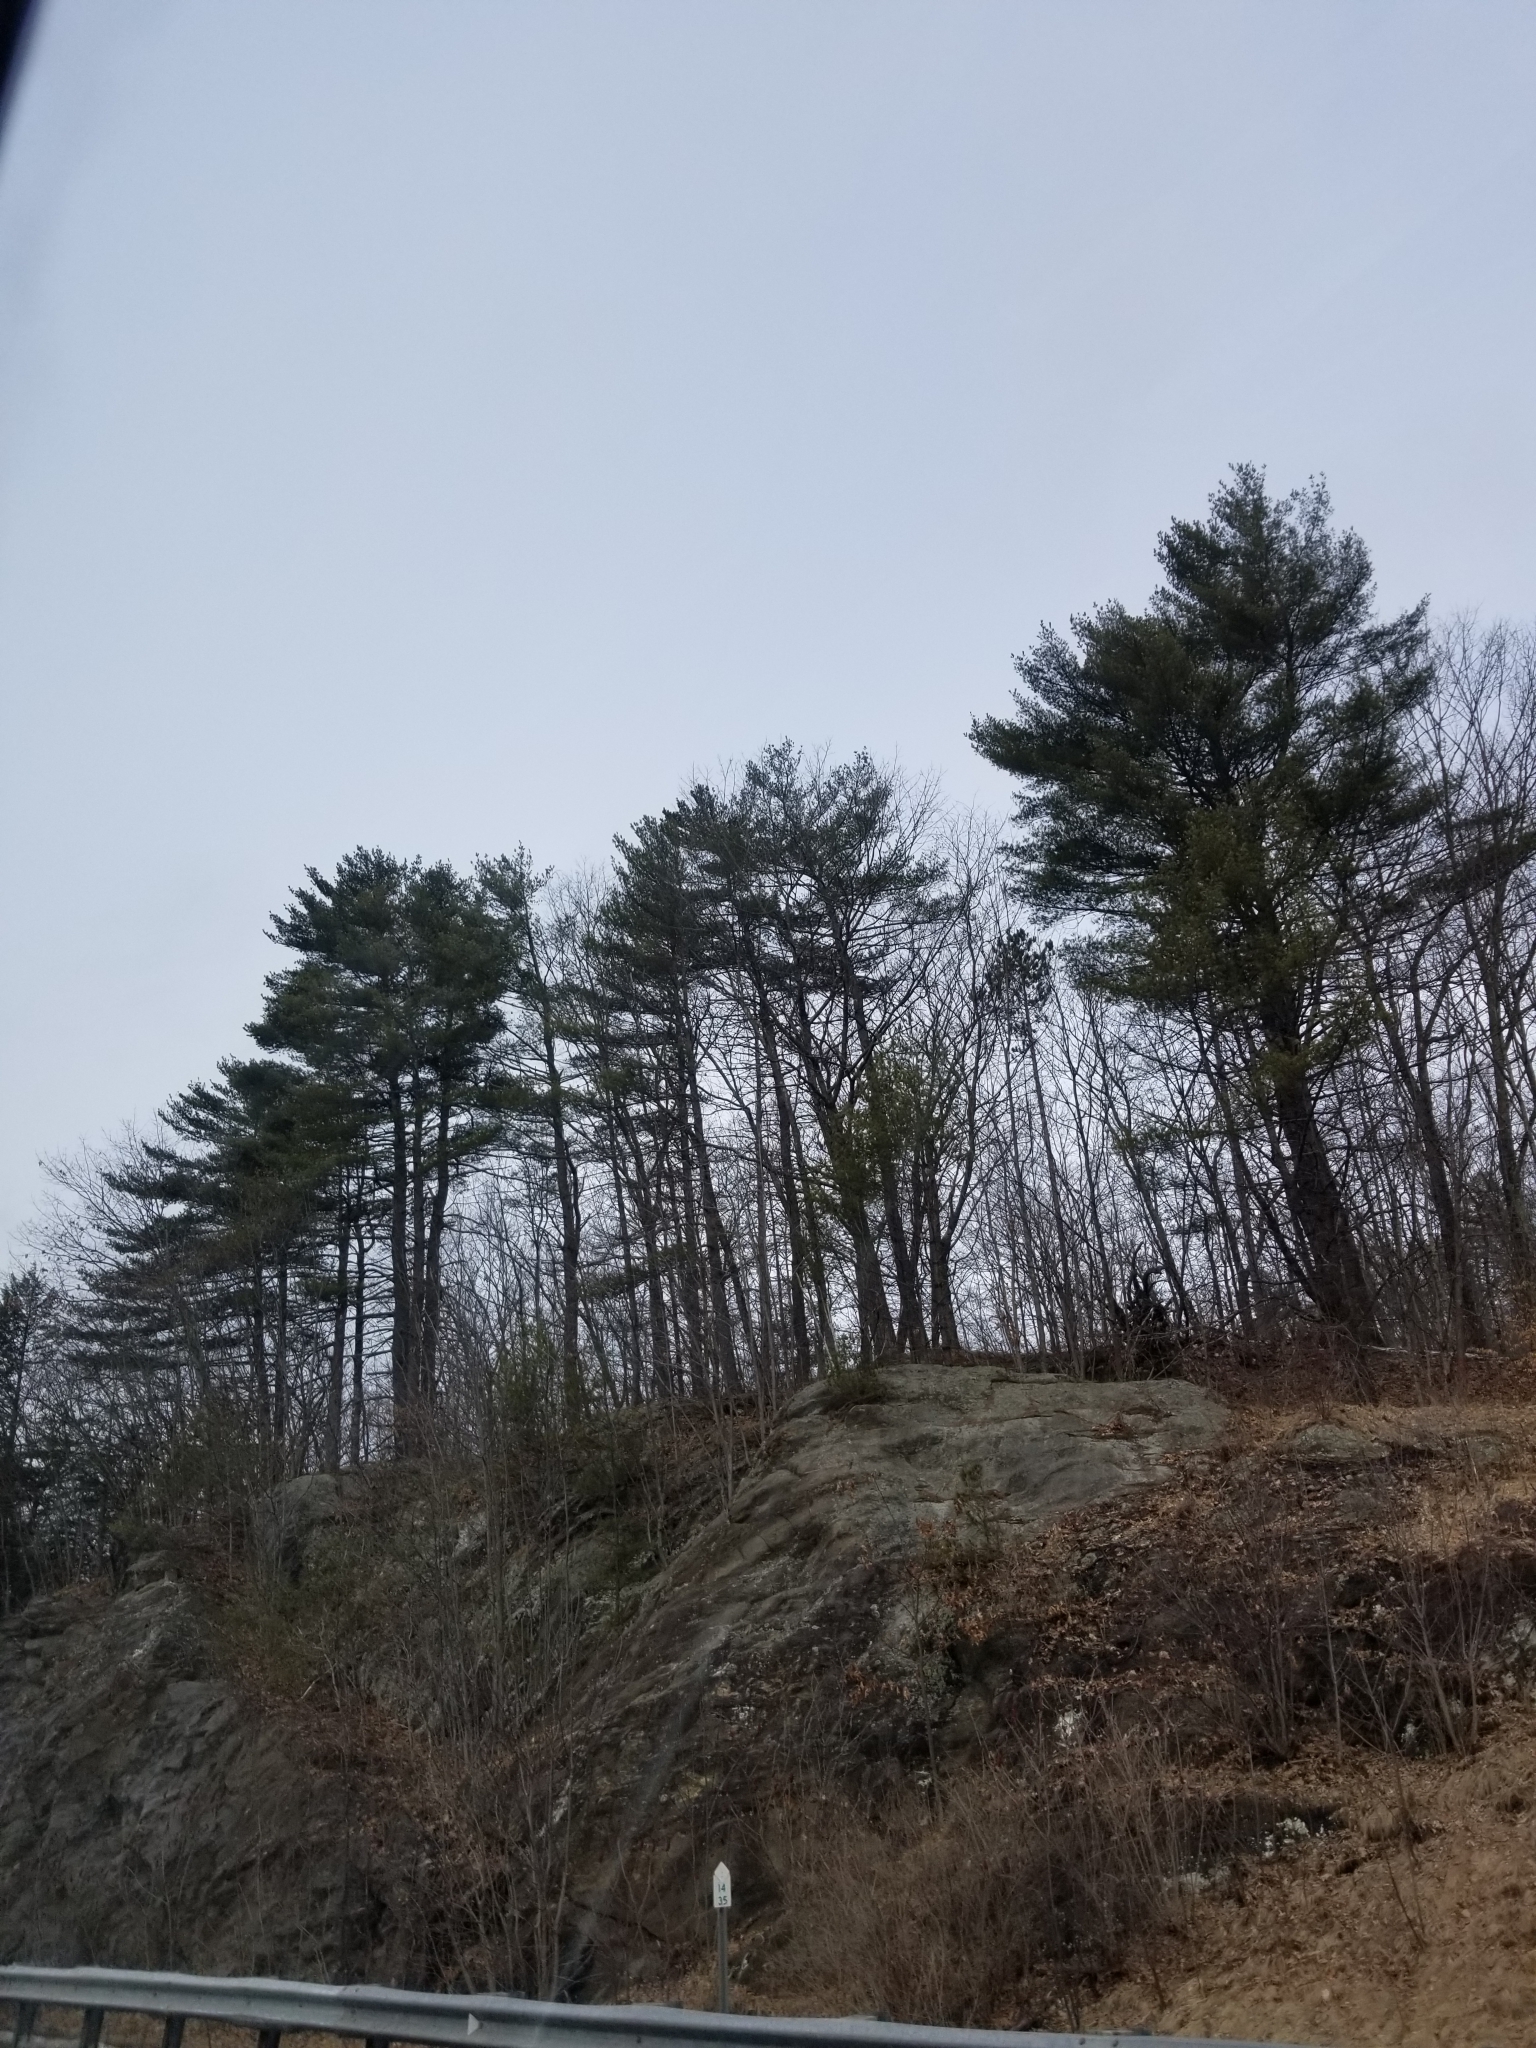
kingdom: Plantae
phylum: Tracheophyta
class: Pinopsida
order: Pinales
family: Pinaceae
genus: Pinus
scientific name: Pinus strobus
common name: Weymouth pine
